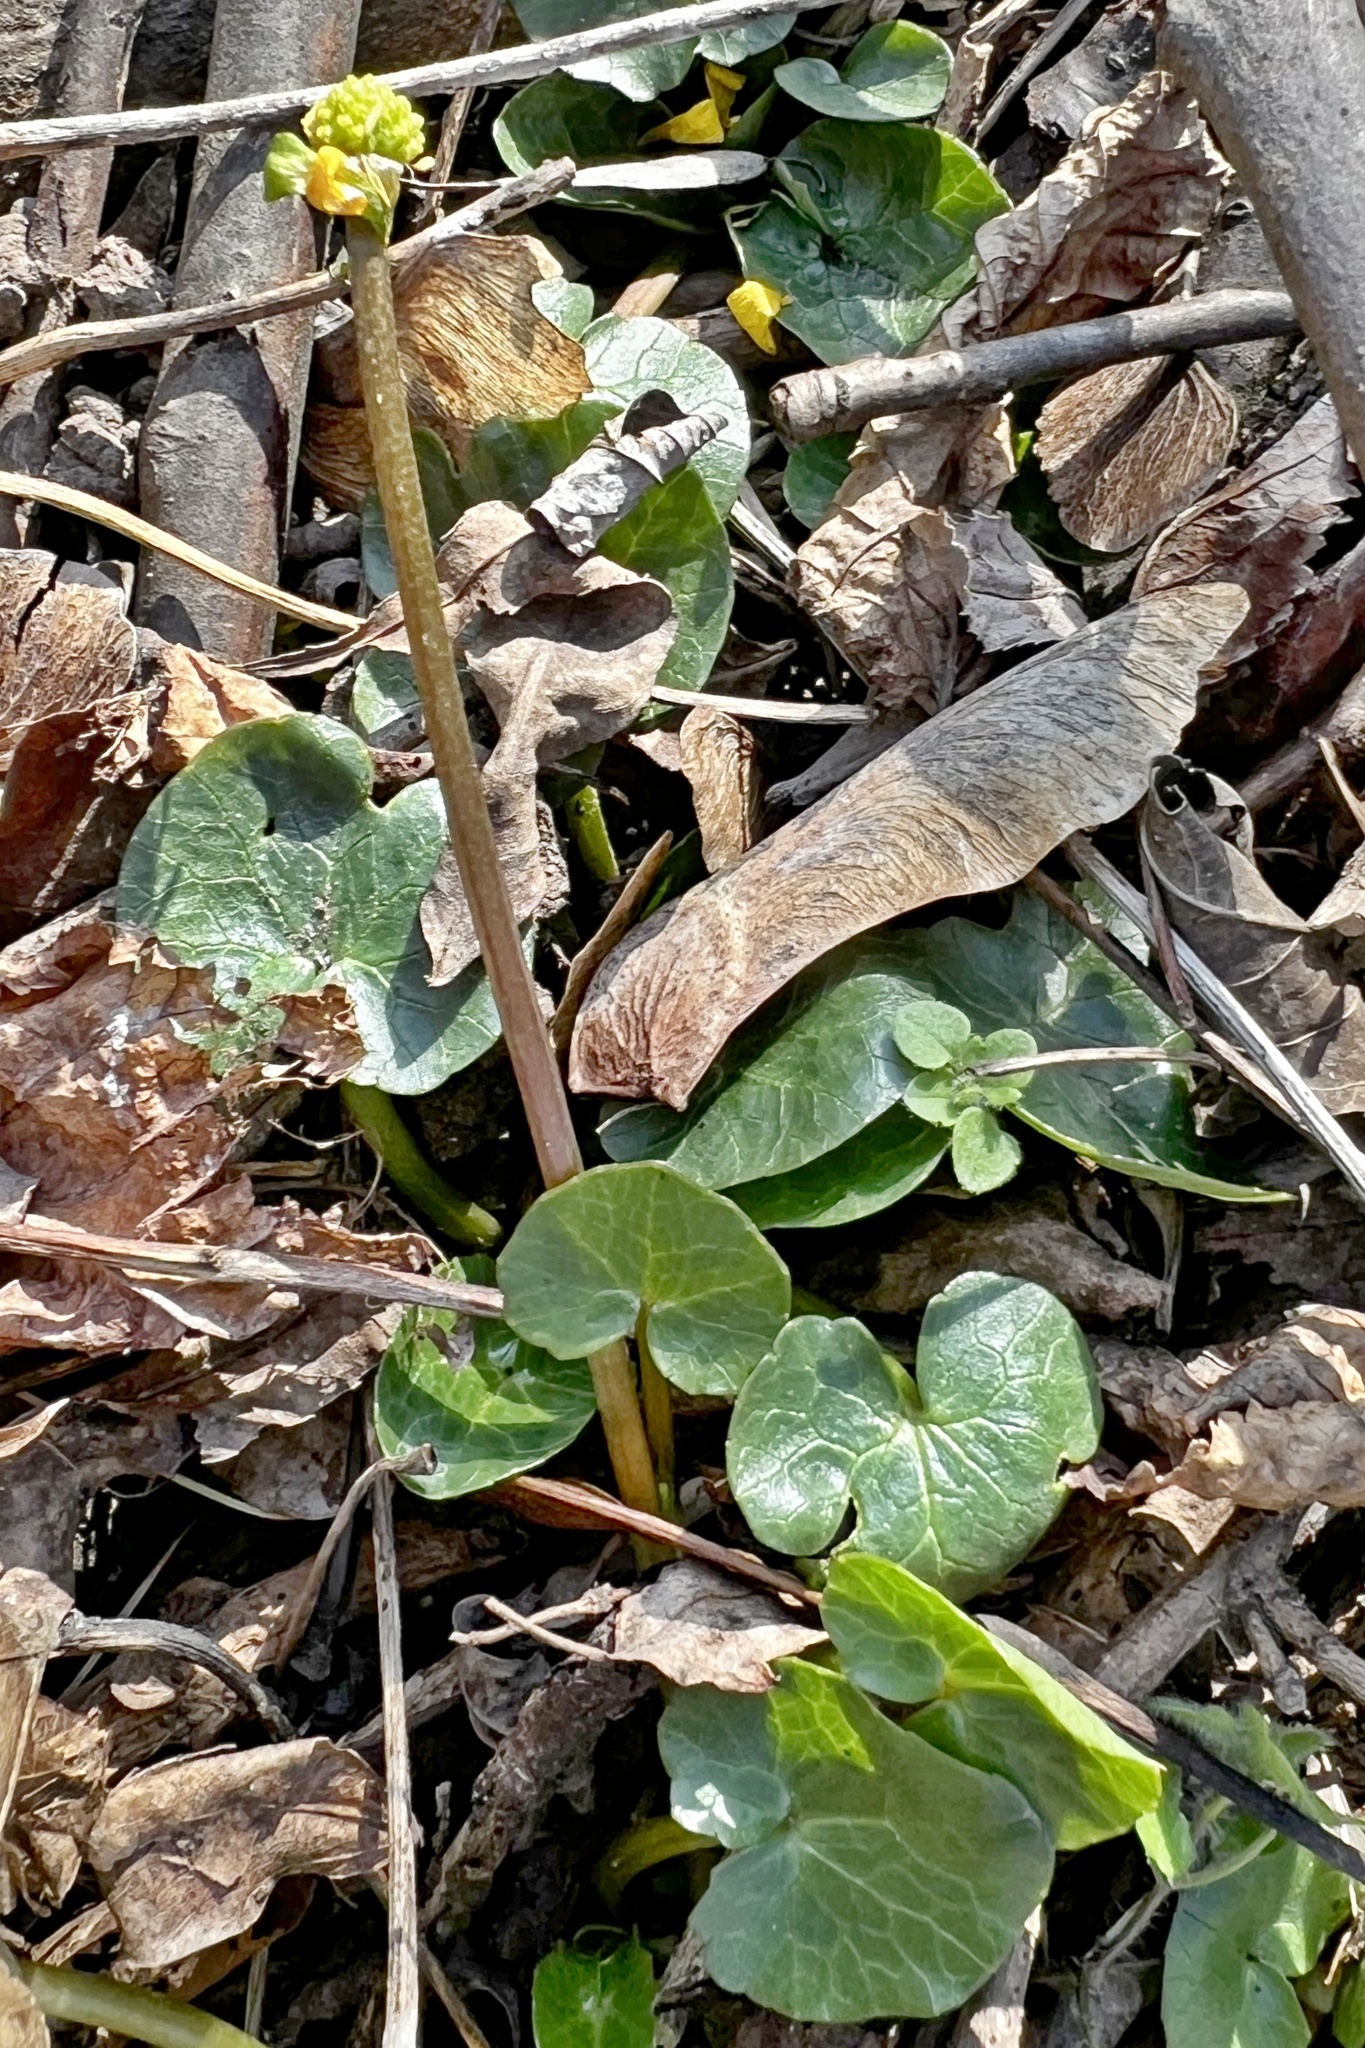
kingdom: Plantae
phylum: Tracheophyta
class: Magnoliopsida
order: Ranunculales
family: Ranunculaceae
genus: Ficaria
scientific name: Ficaria verna
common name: Lesser celandine
